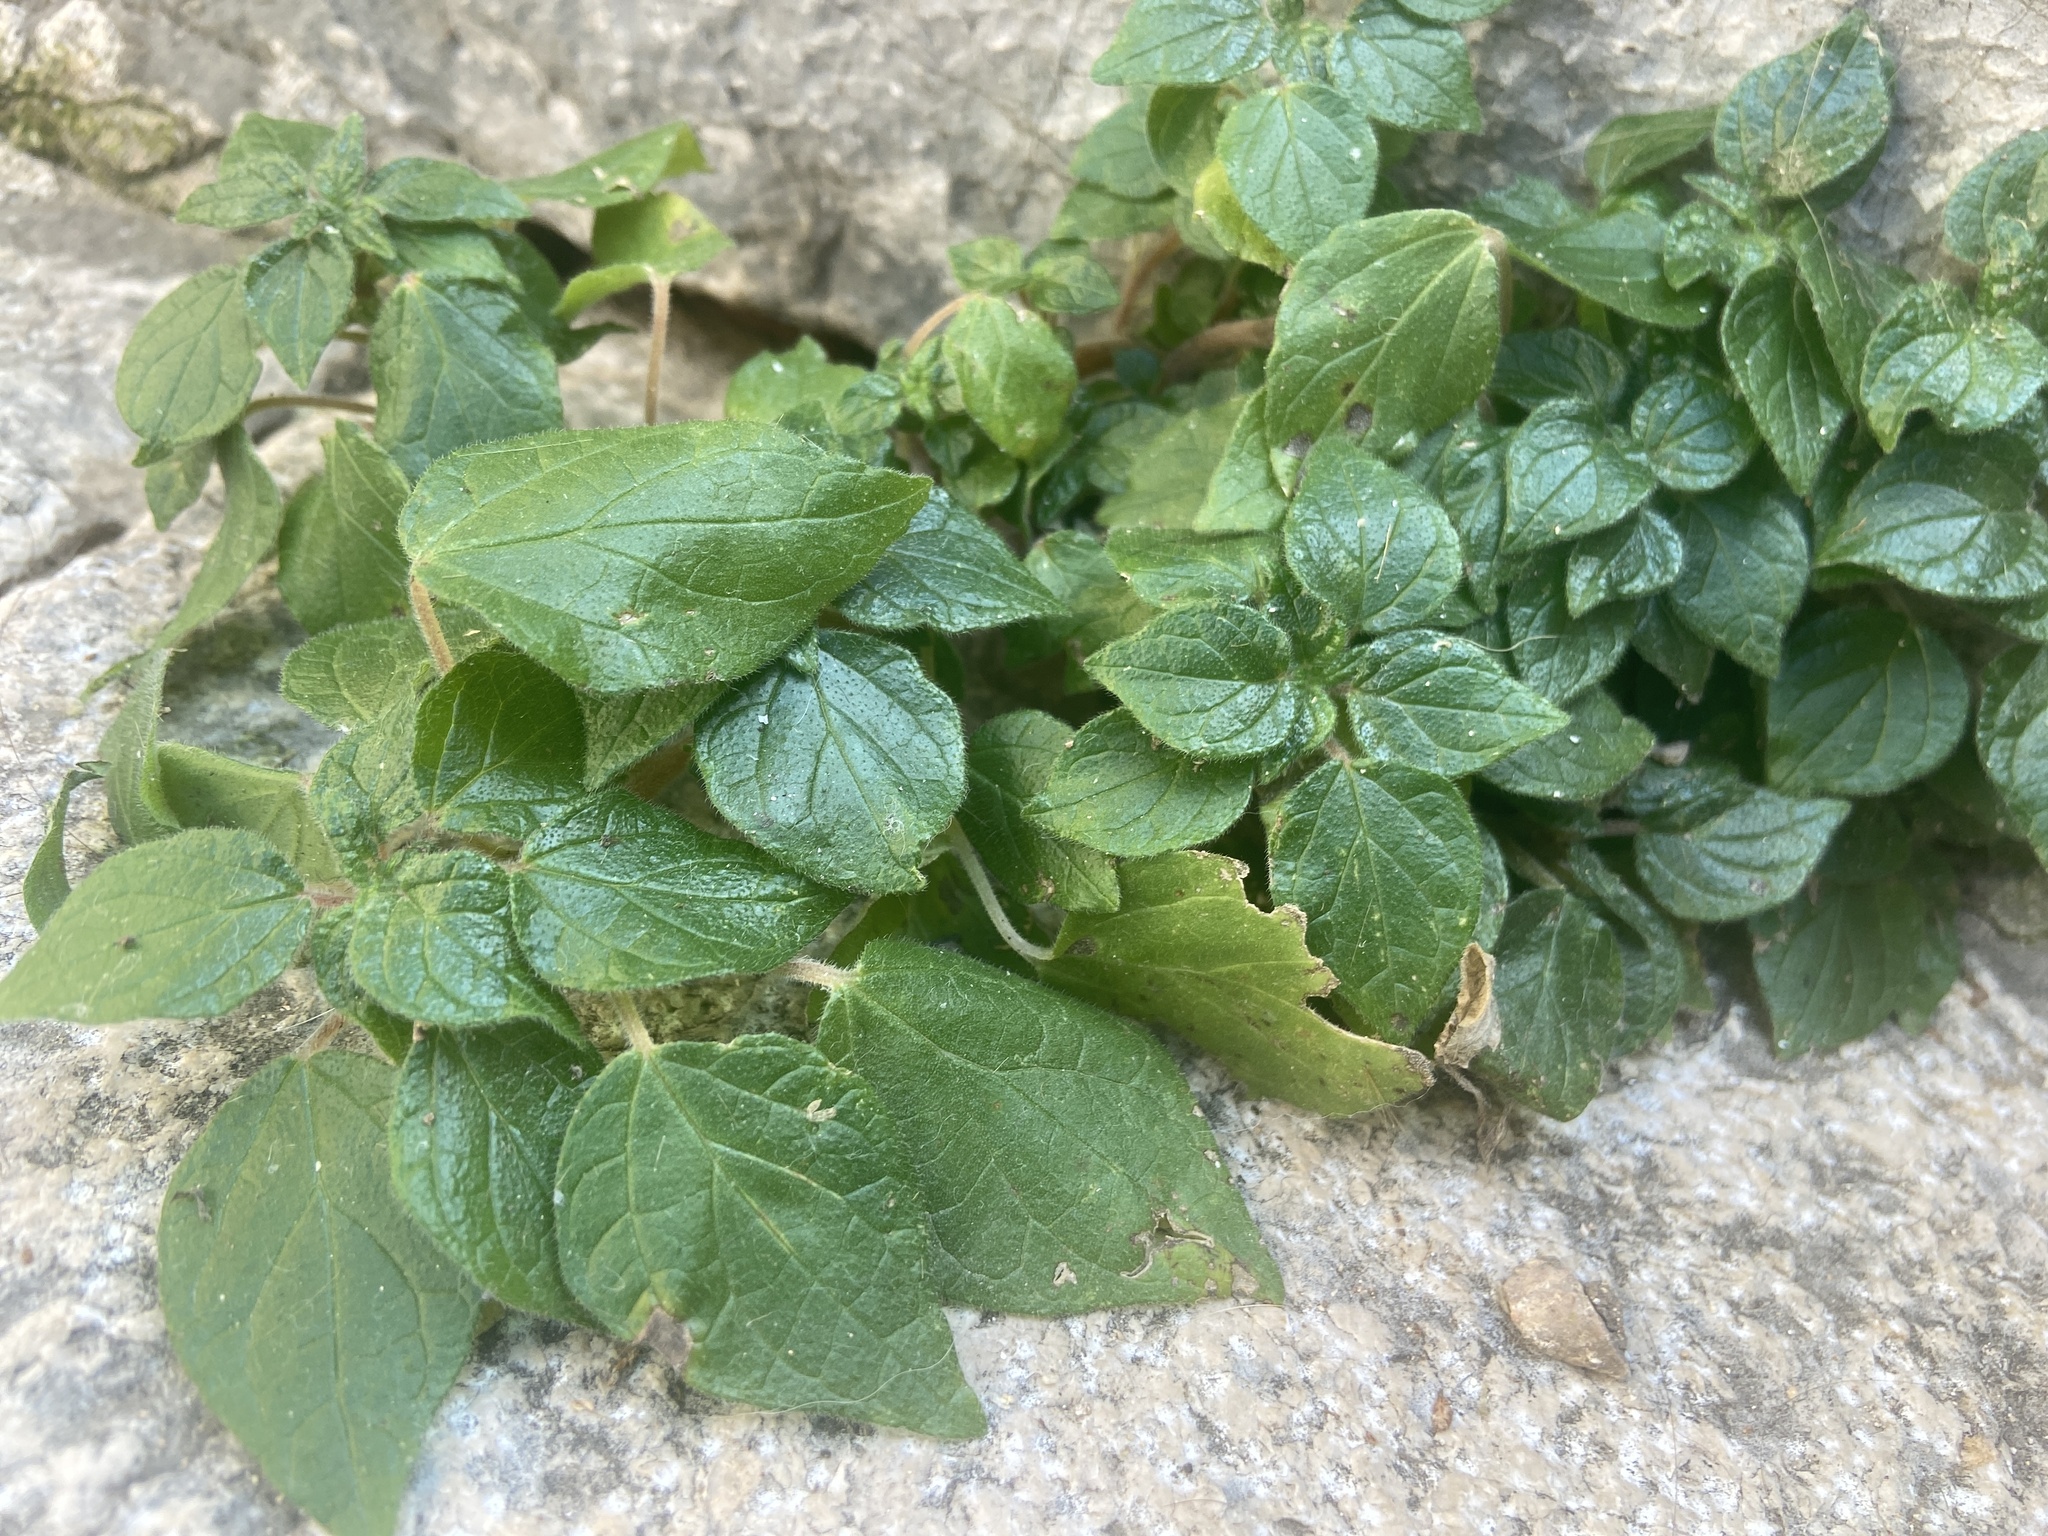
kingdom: Plantae
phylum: Tracheophyta
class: Magnoliopsida
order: Rosales
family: Urticaceae
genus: Parietaria
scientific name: Parietaria judaica
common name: Pellitory-of-the-wall
